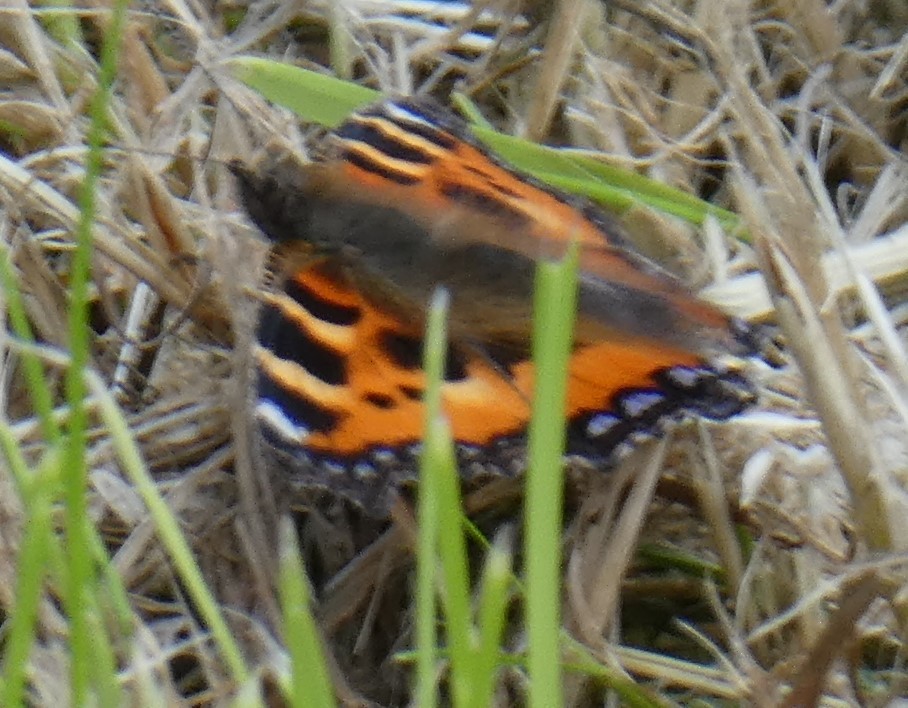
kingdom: Animalia
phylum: Arthropoda
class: Insecta
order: Lepidoptera
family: Nymphalidae
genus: Aglais
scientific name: Aglais urticae
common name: Small tortoiseshell
